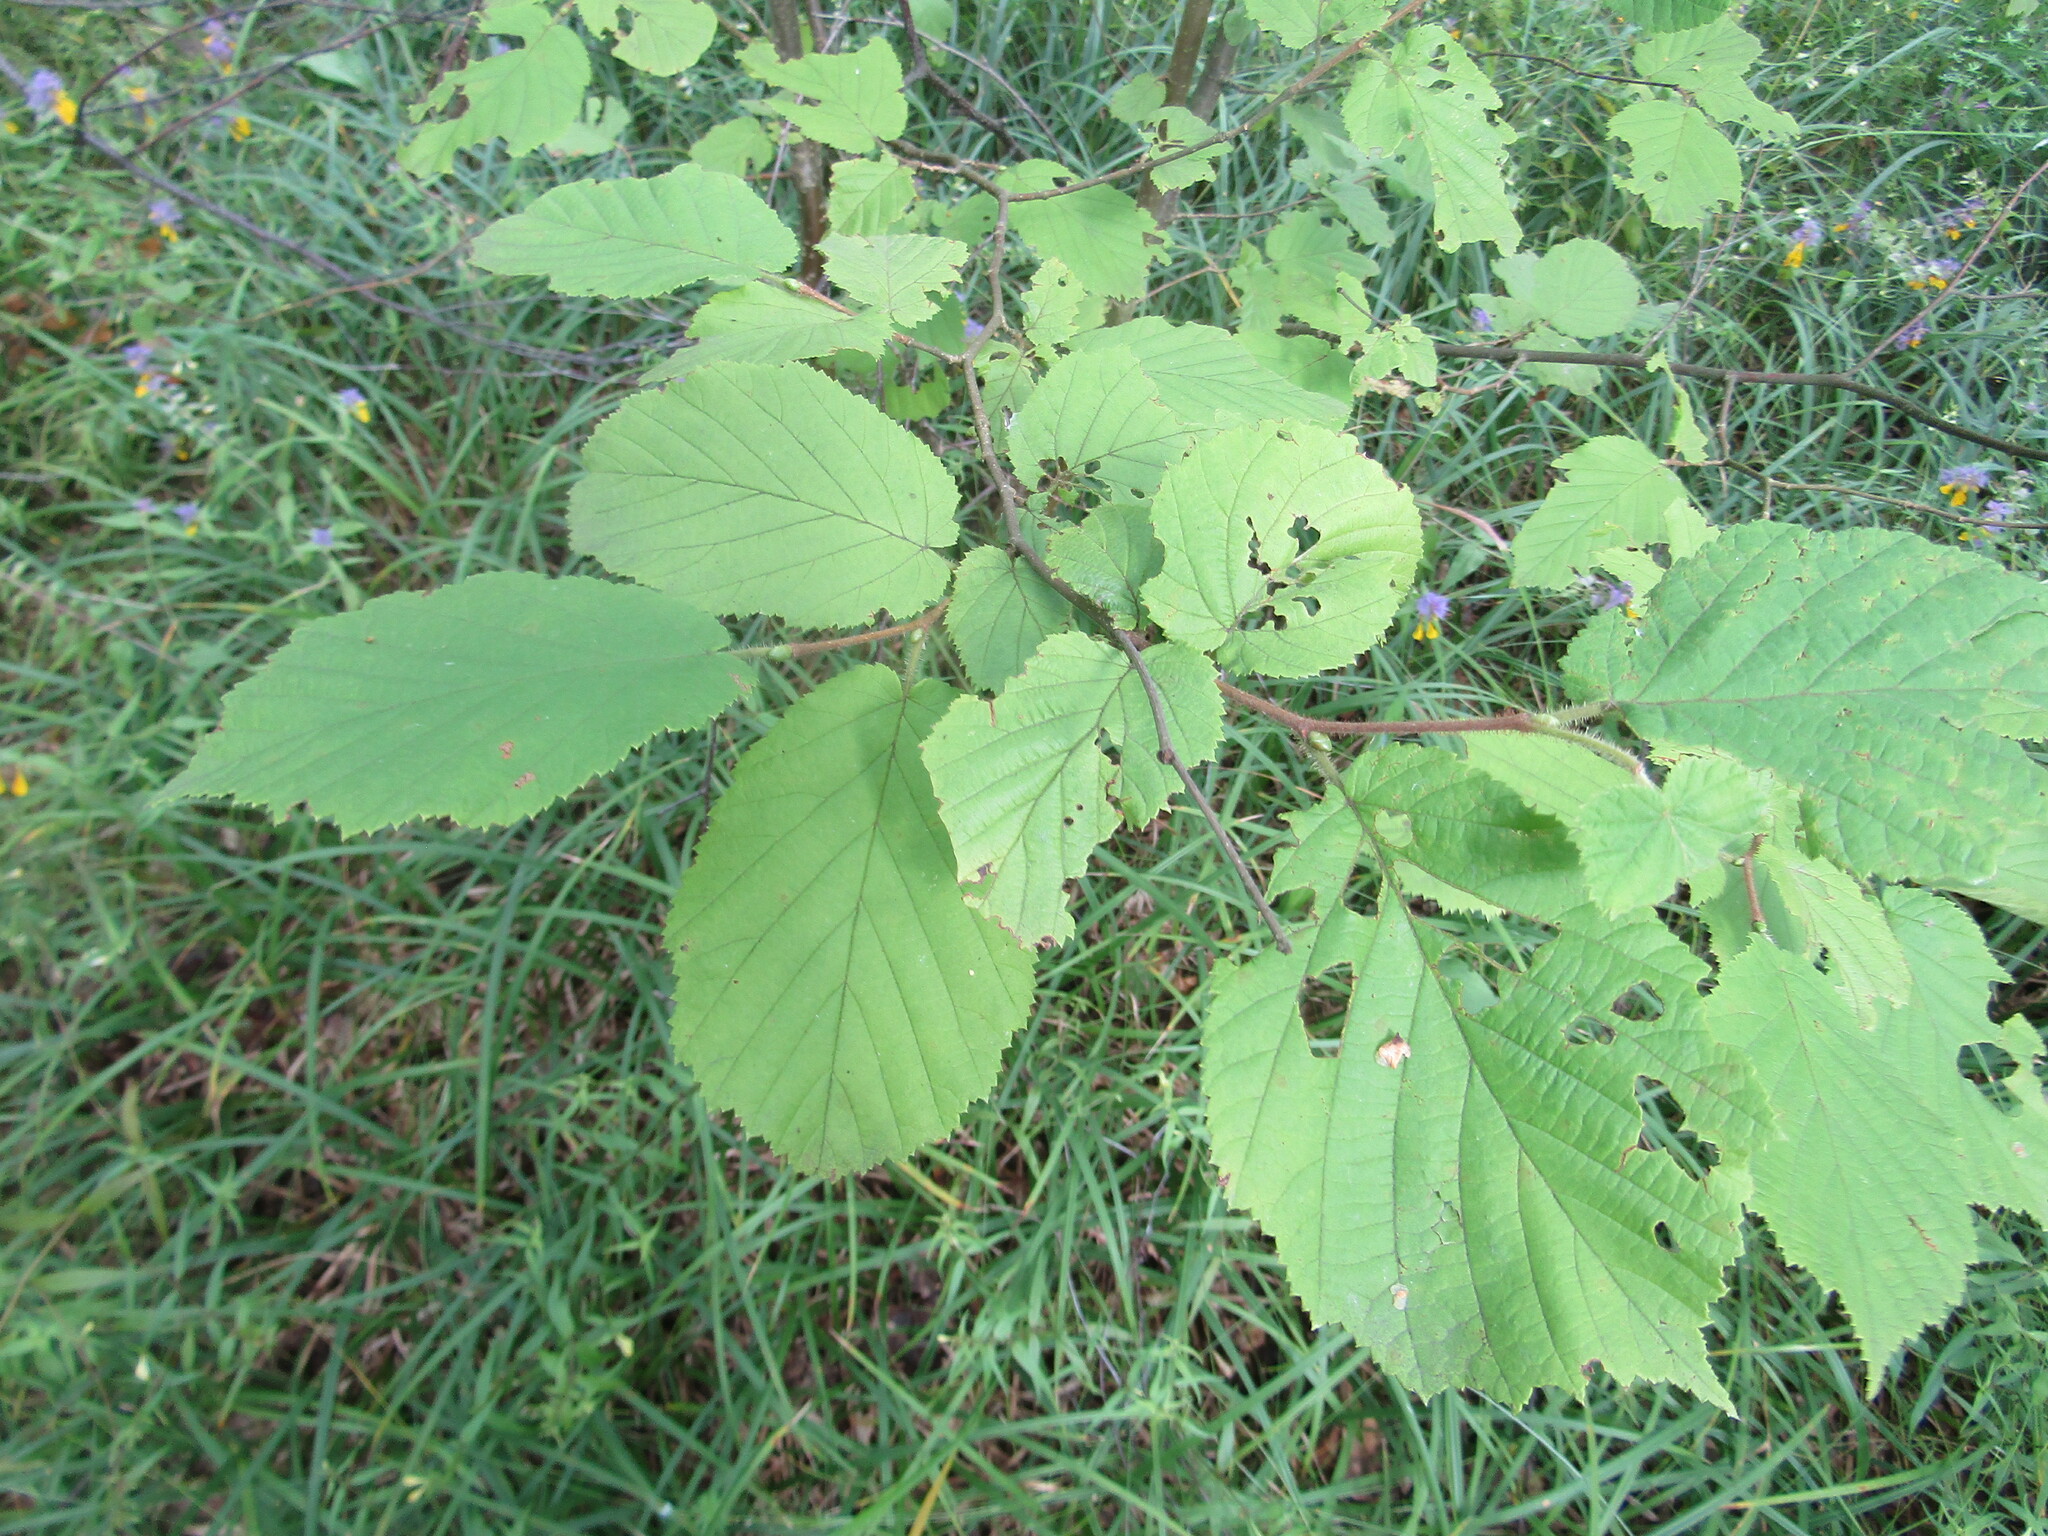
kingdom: Plantae
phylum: Tracheophyta
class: Magnoliopsida
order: Fagales
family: Betulaceae
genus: Corylus
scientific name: Corylus avellana
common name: European hazel
